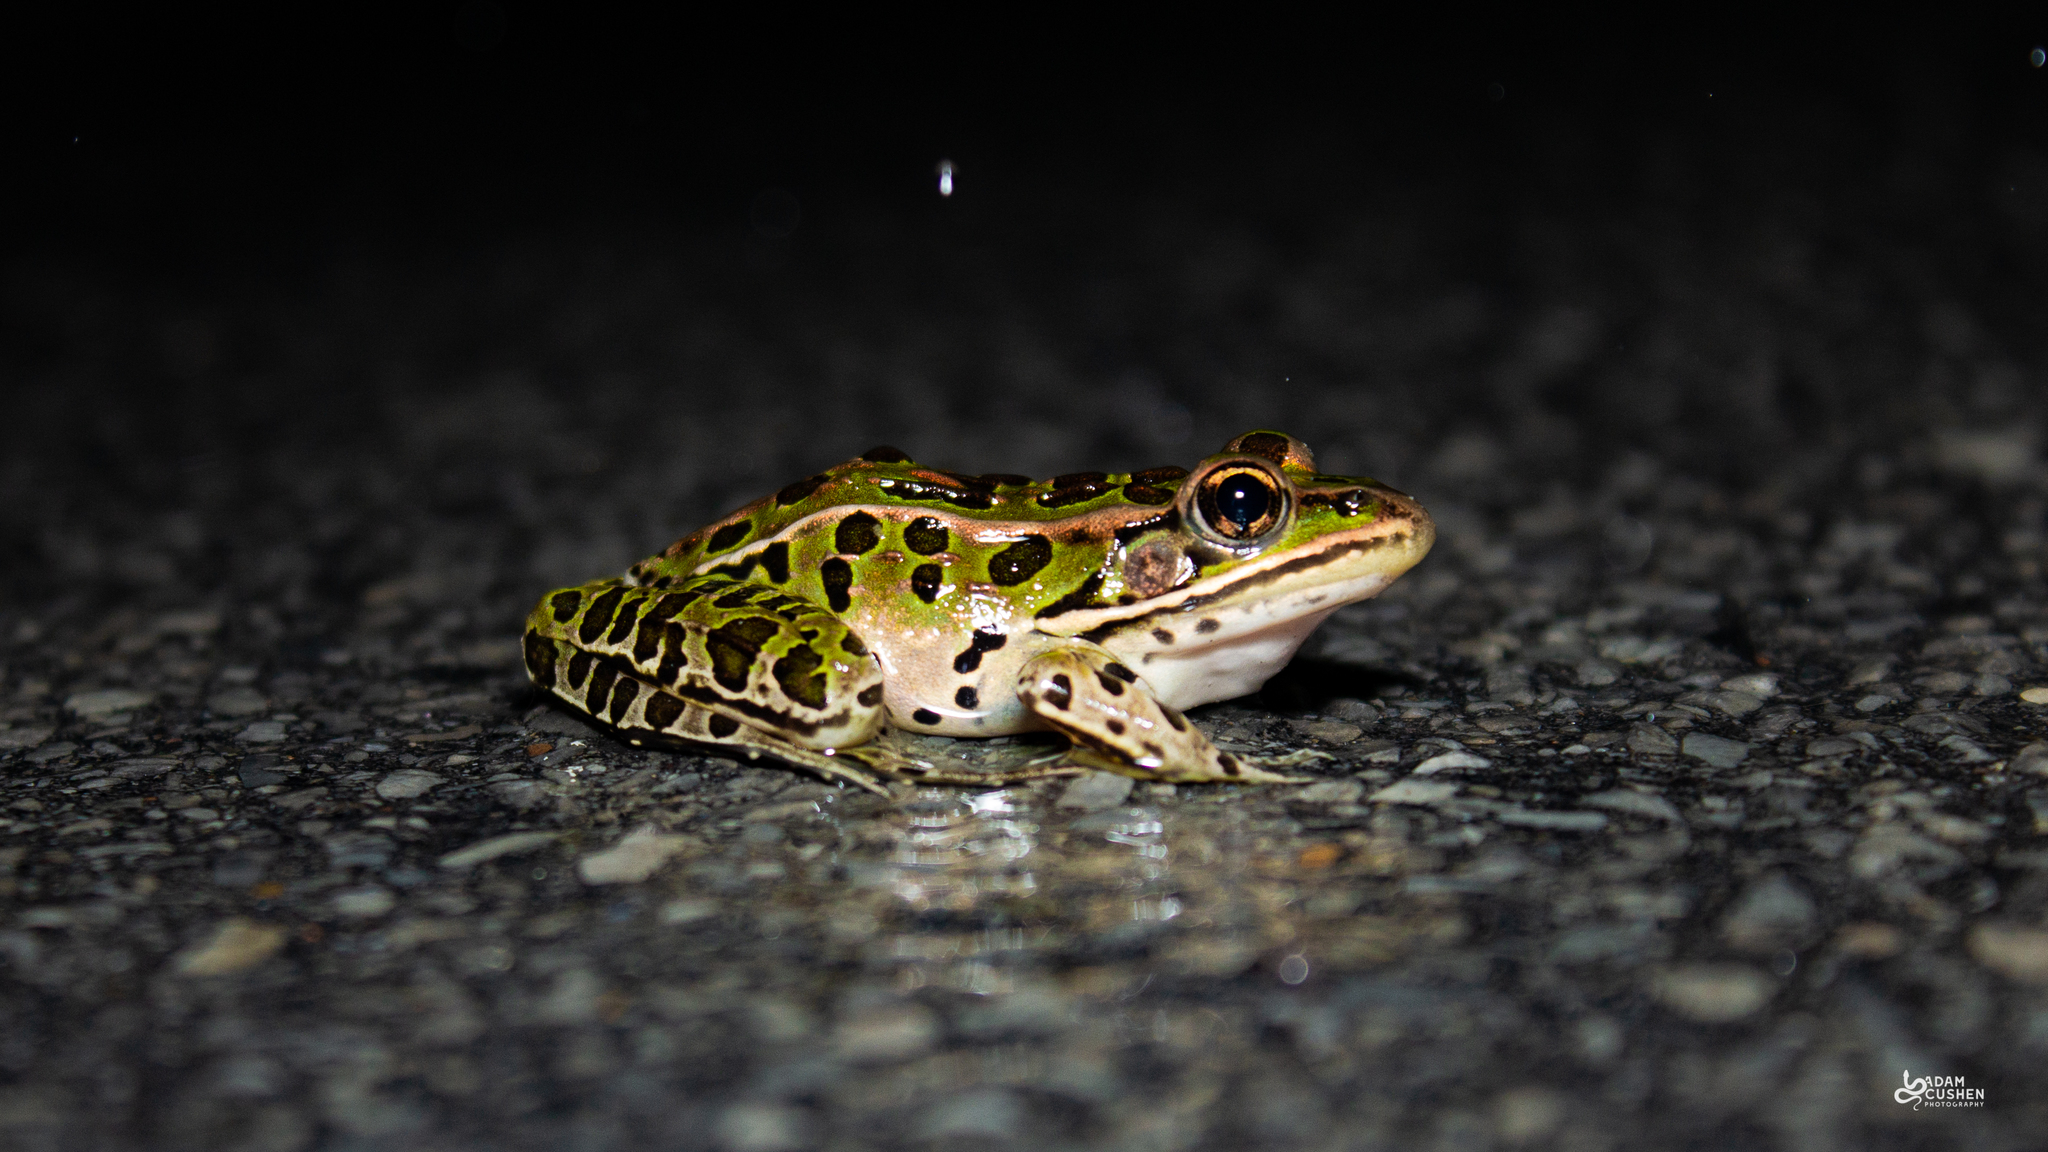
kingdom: Animalia
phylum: Chordata
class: Amphibia
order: Anura
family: Ranidae
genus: Lithobates
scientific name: Lithobates pipiens
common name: Northern leopard frog
